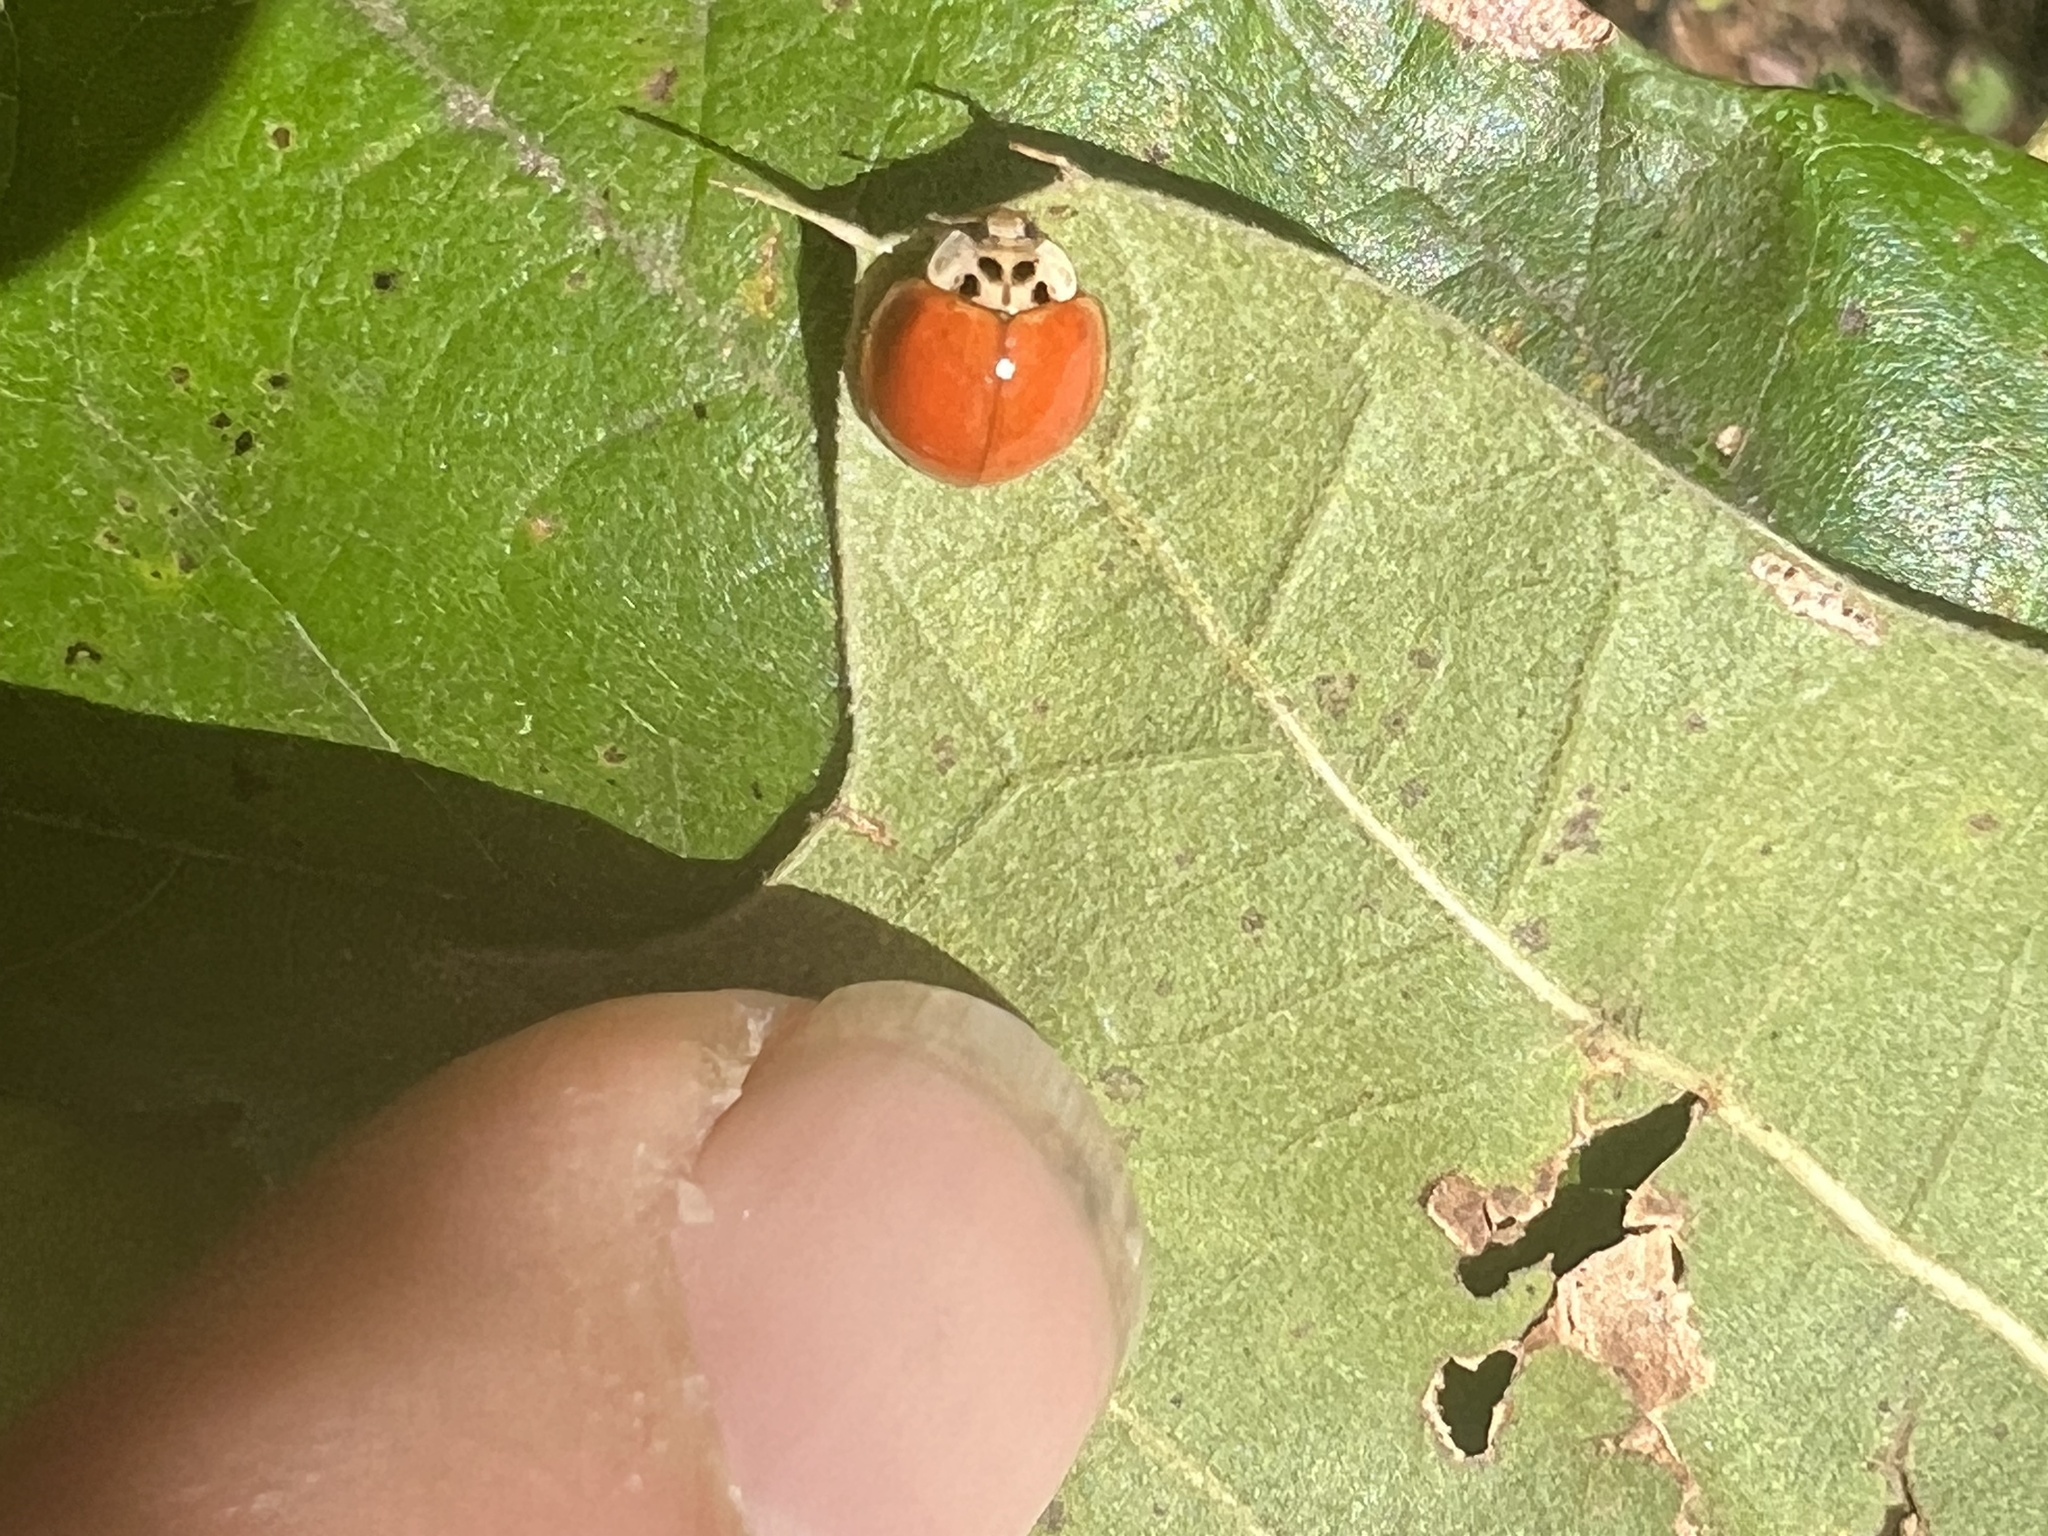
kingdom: Animalia
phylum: Arthropoda
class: Insecta
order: Coleoptera
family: Coccinellidae
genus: Harmonia
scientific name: Harmonia axyridis
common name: Harlequin ladybird
